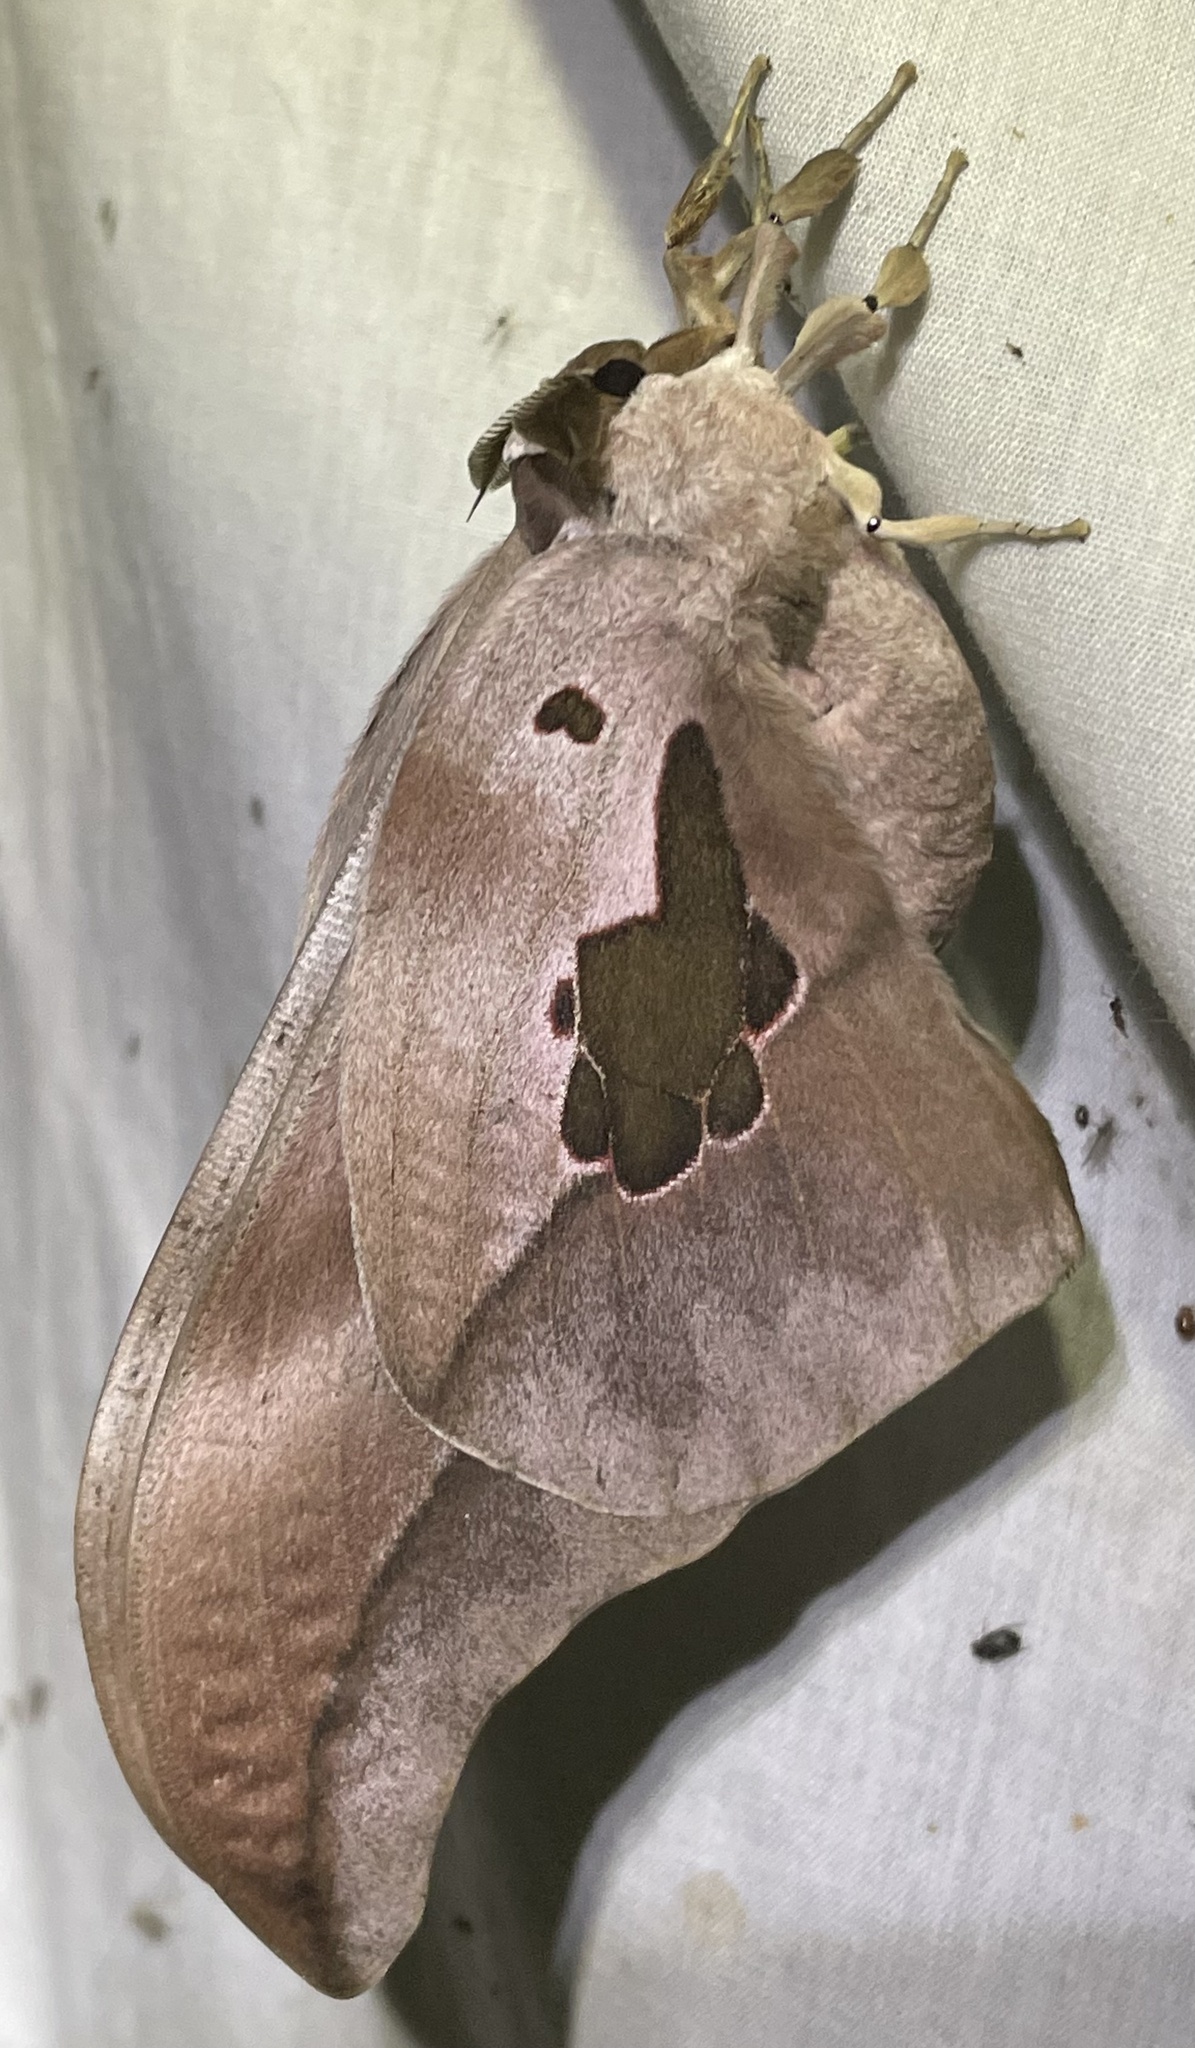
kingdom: Animalia
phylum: Arthropoda
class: Insecta
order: Lepidoptera
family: Saturniidae
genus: Lobobunaea
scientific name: Lobobunaea phaedusa
